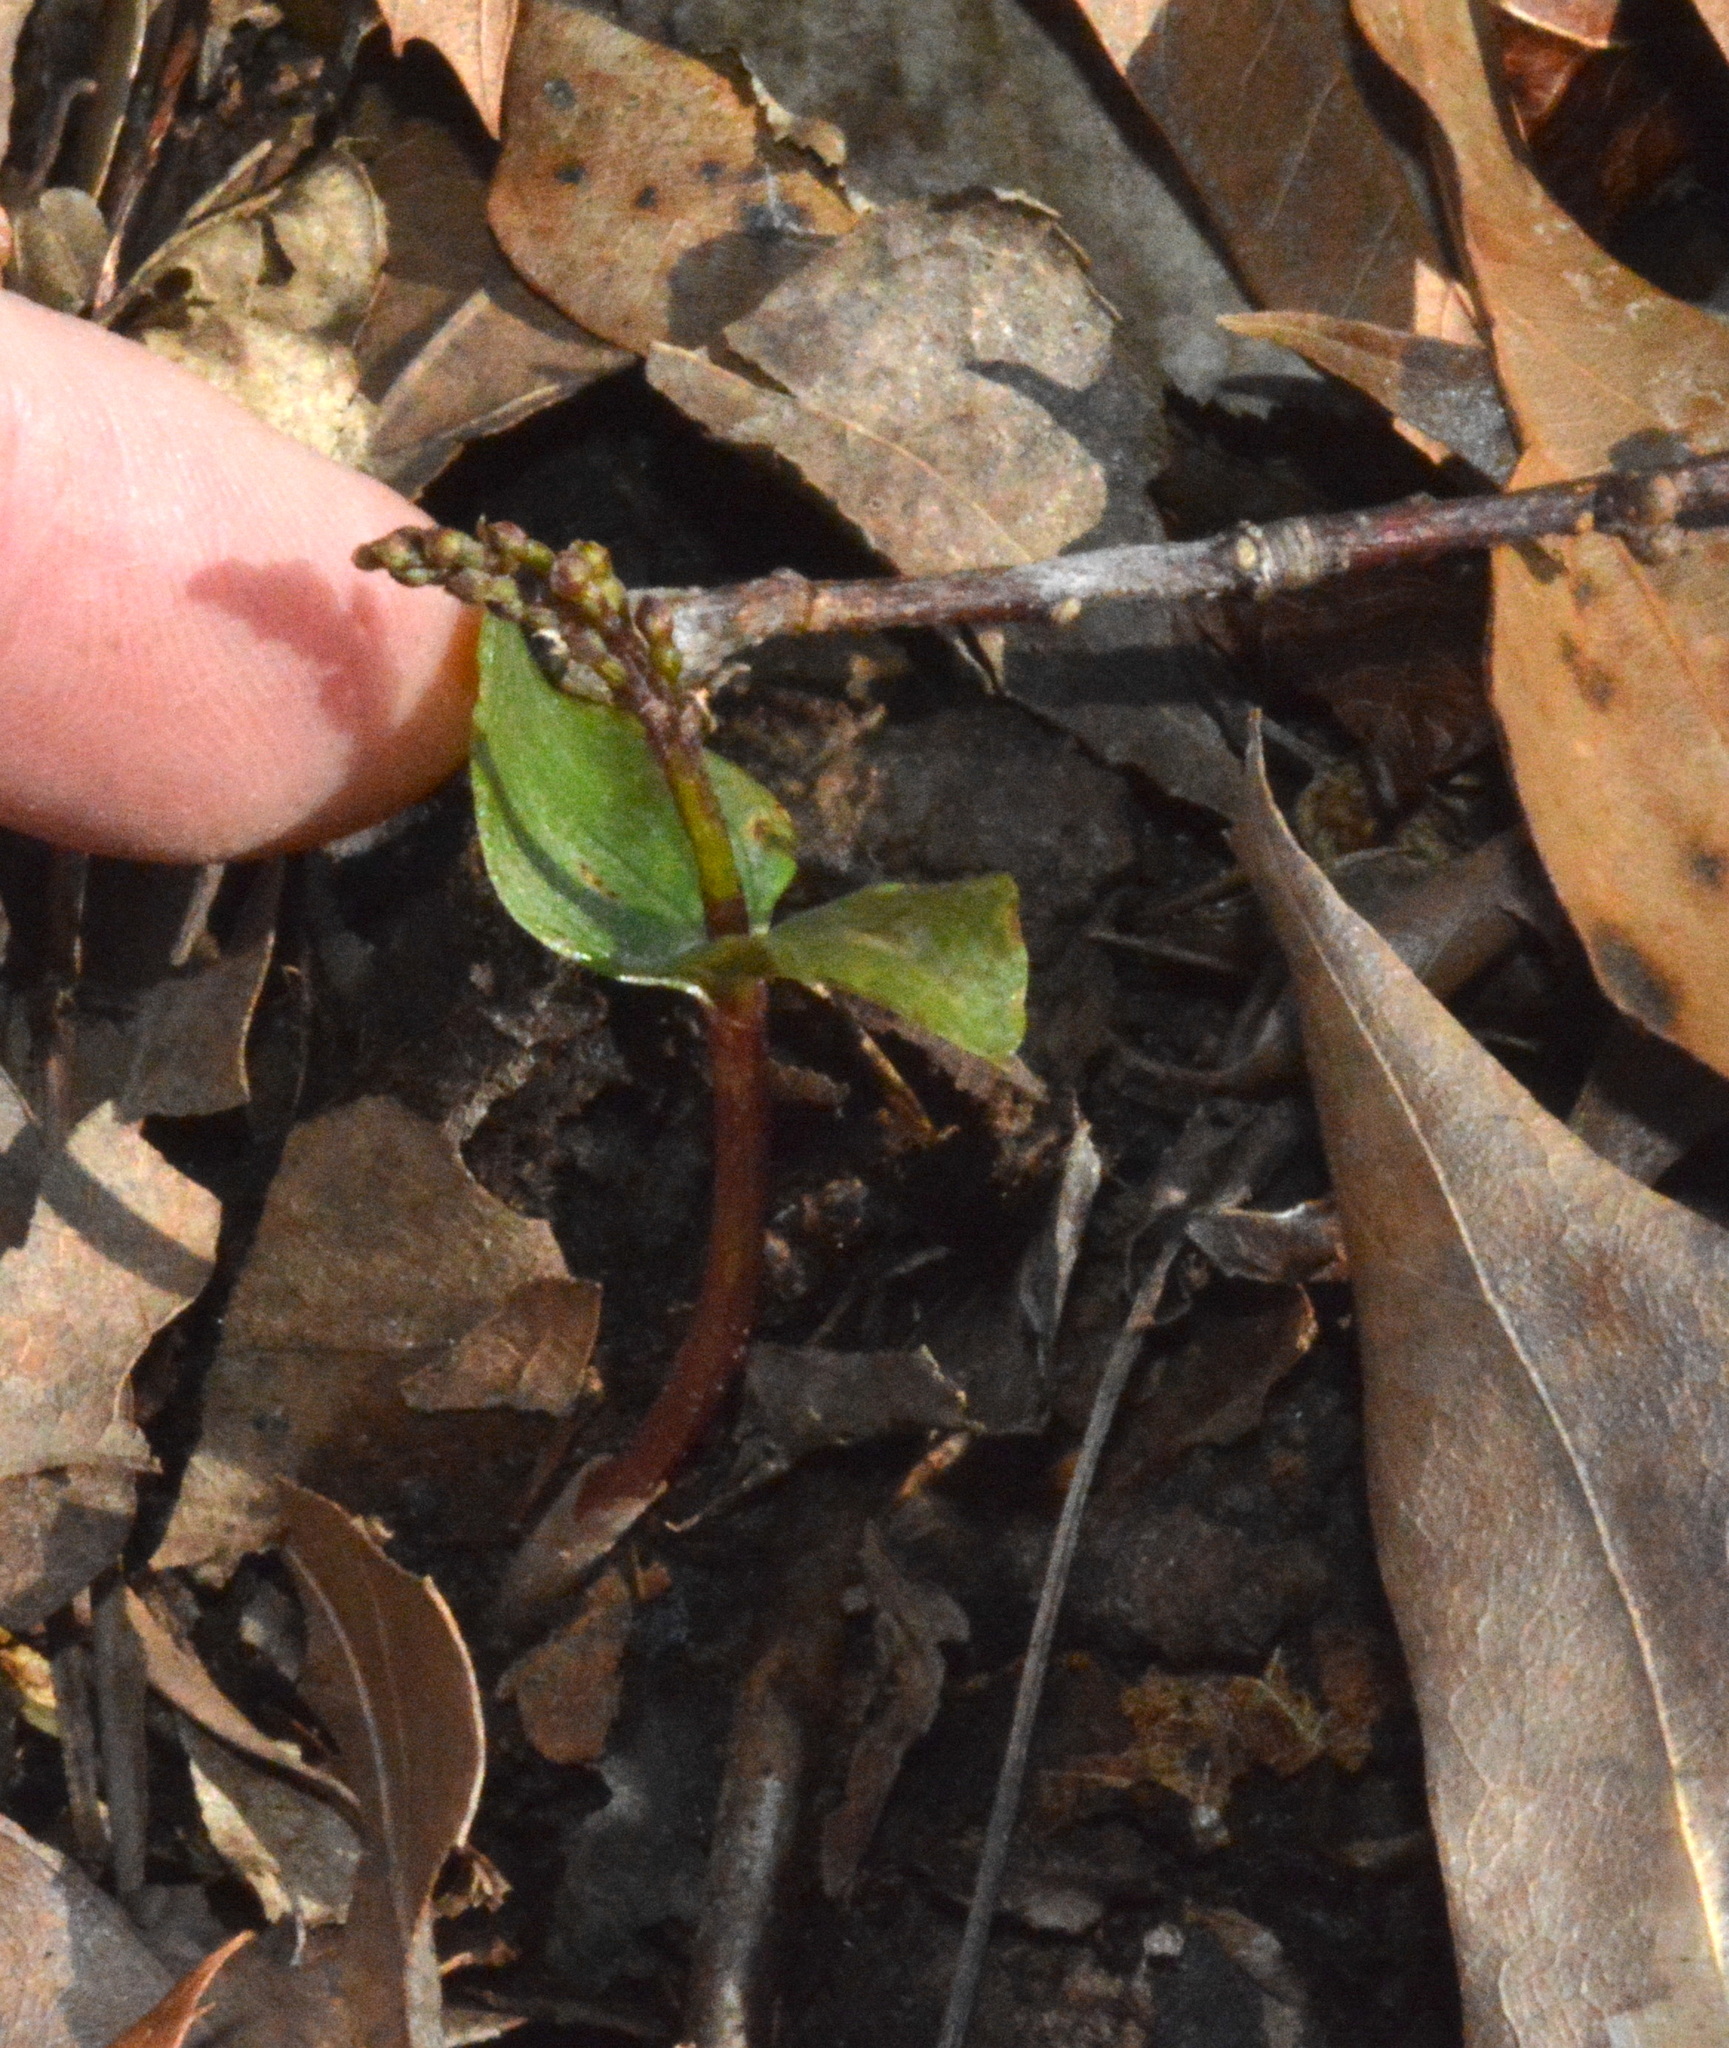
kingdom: Plantae
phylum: Tracheophyta
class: Liliopsida
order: Asparagales
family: Orchidaceae
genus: Neottia
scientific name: Neottia bifolia
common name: Southern twayblade
